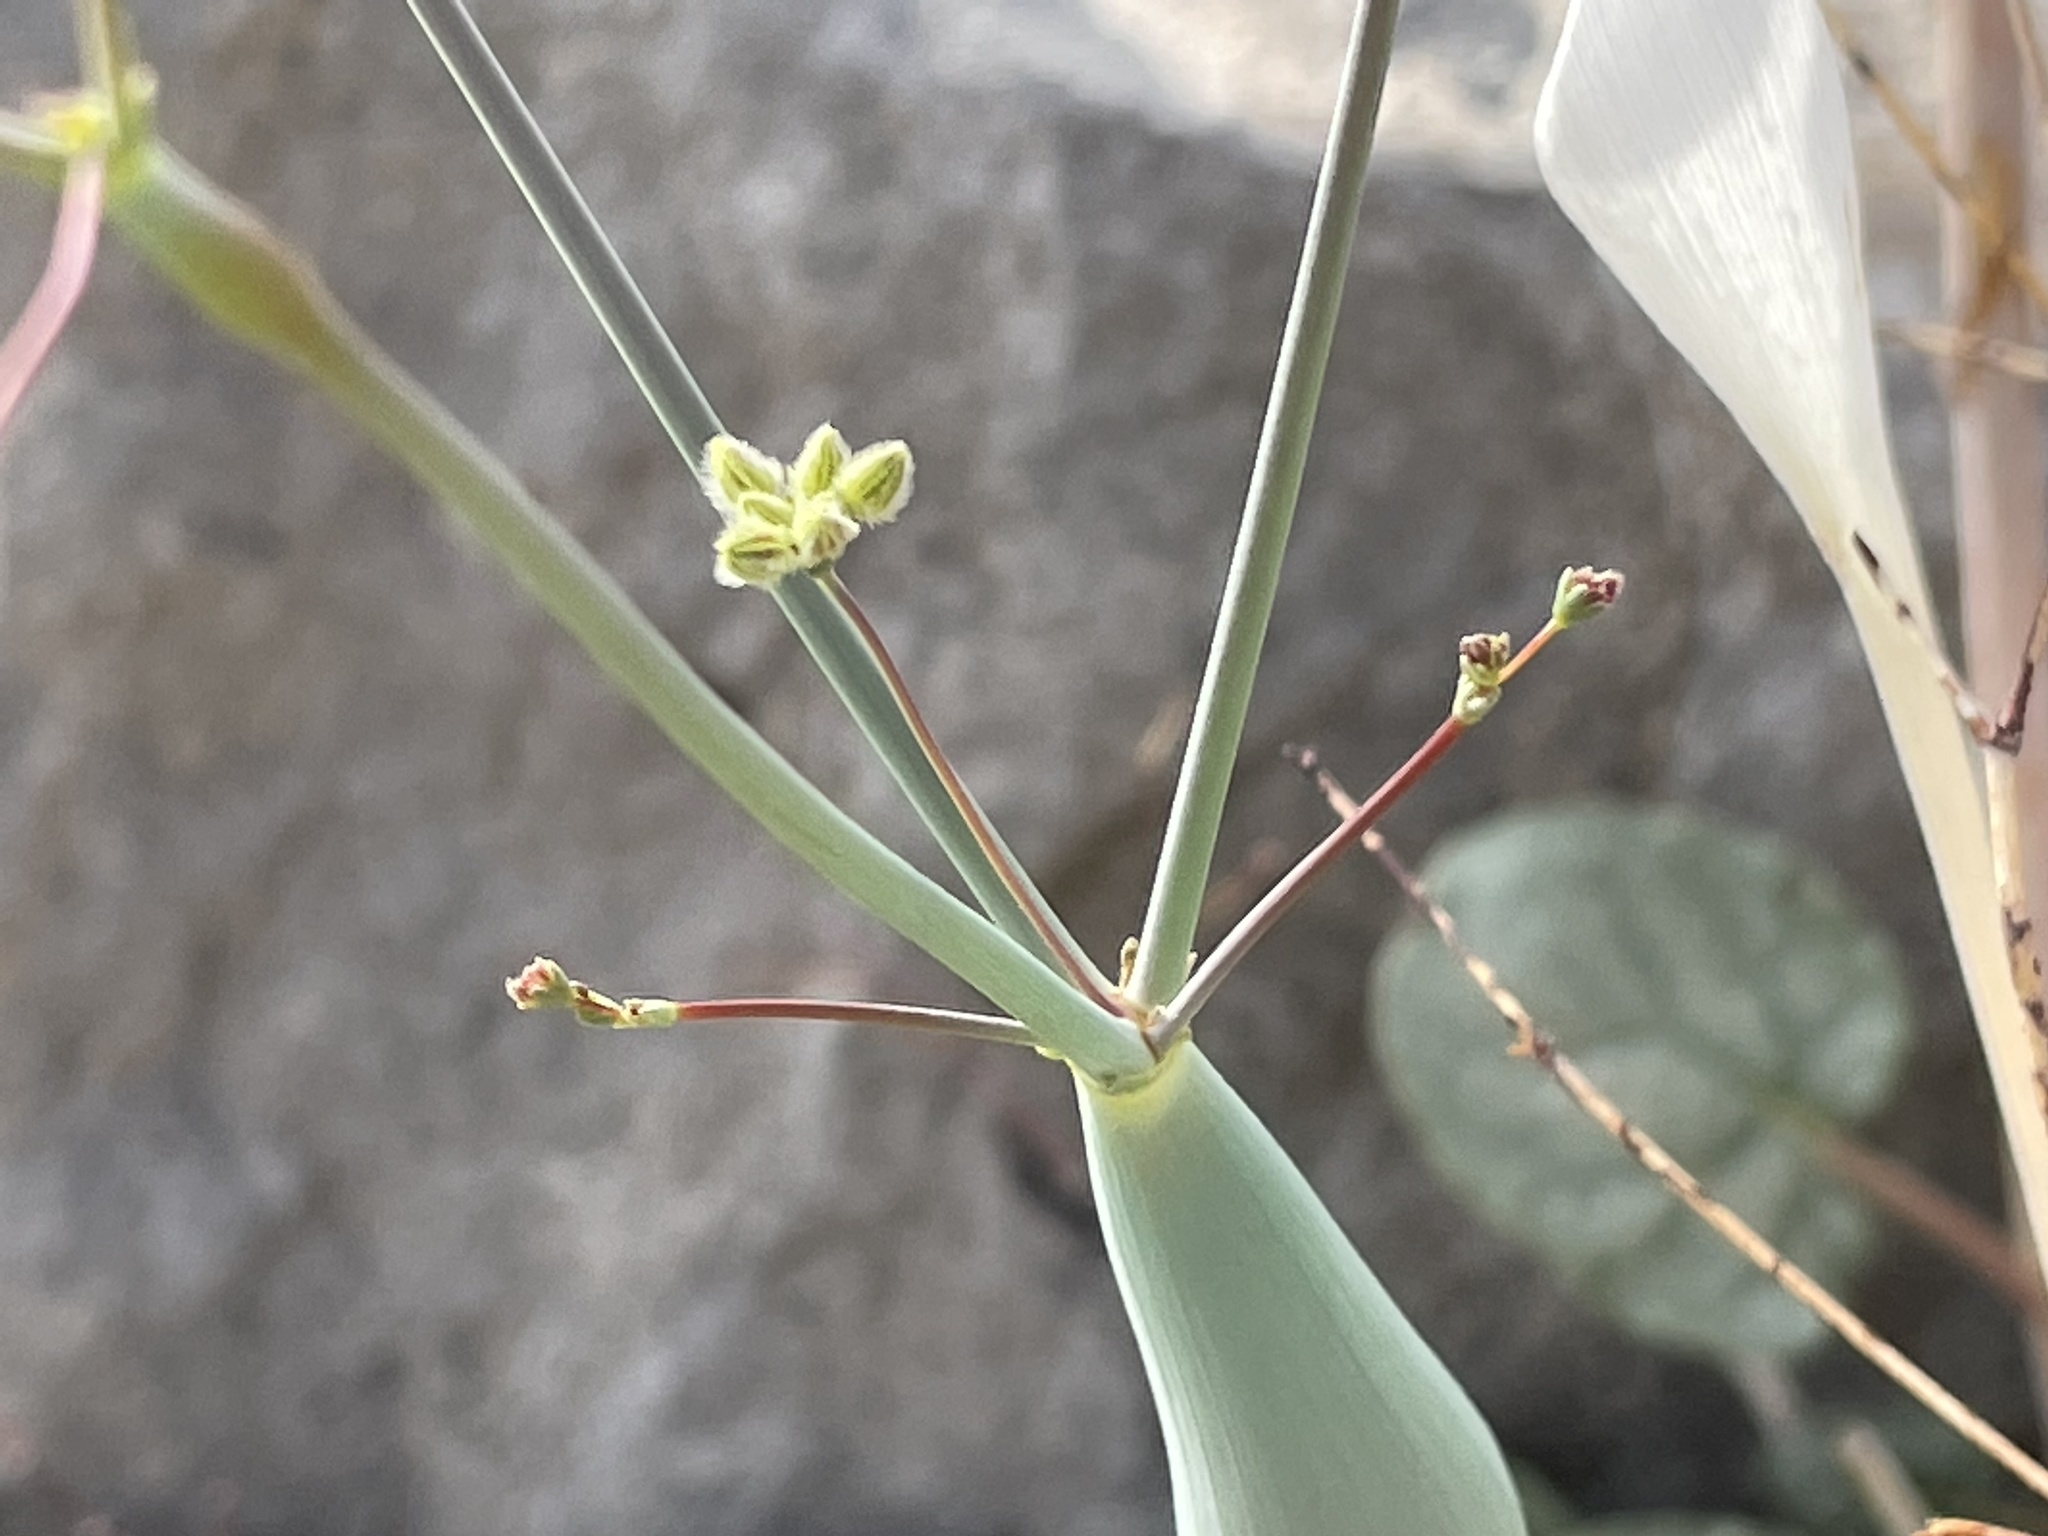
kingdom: Plantae
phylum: Tracheophyta
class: Magnoliopsida
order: Caryophyllales
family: Polygonaceae
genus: Eriogonum
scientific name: Eriogonum inflatum
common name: Desert trumpet
